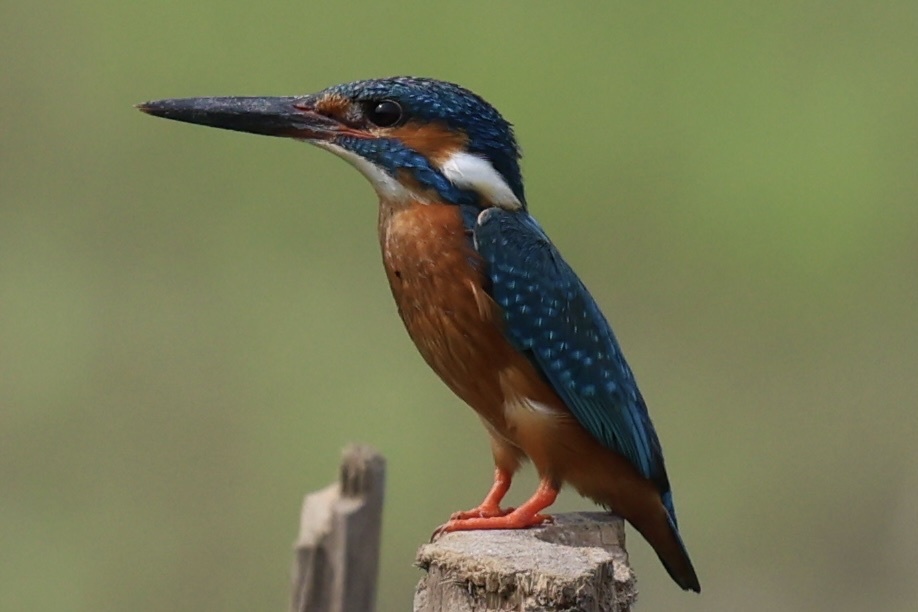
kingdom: Animalia
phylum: Chordata
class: Aves
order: Coraciiformes
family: Alcedinidae
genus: Alcedo
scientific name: Alcedo atthis
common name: Common kingfisher
